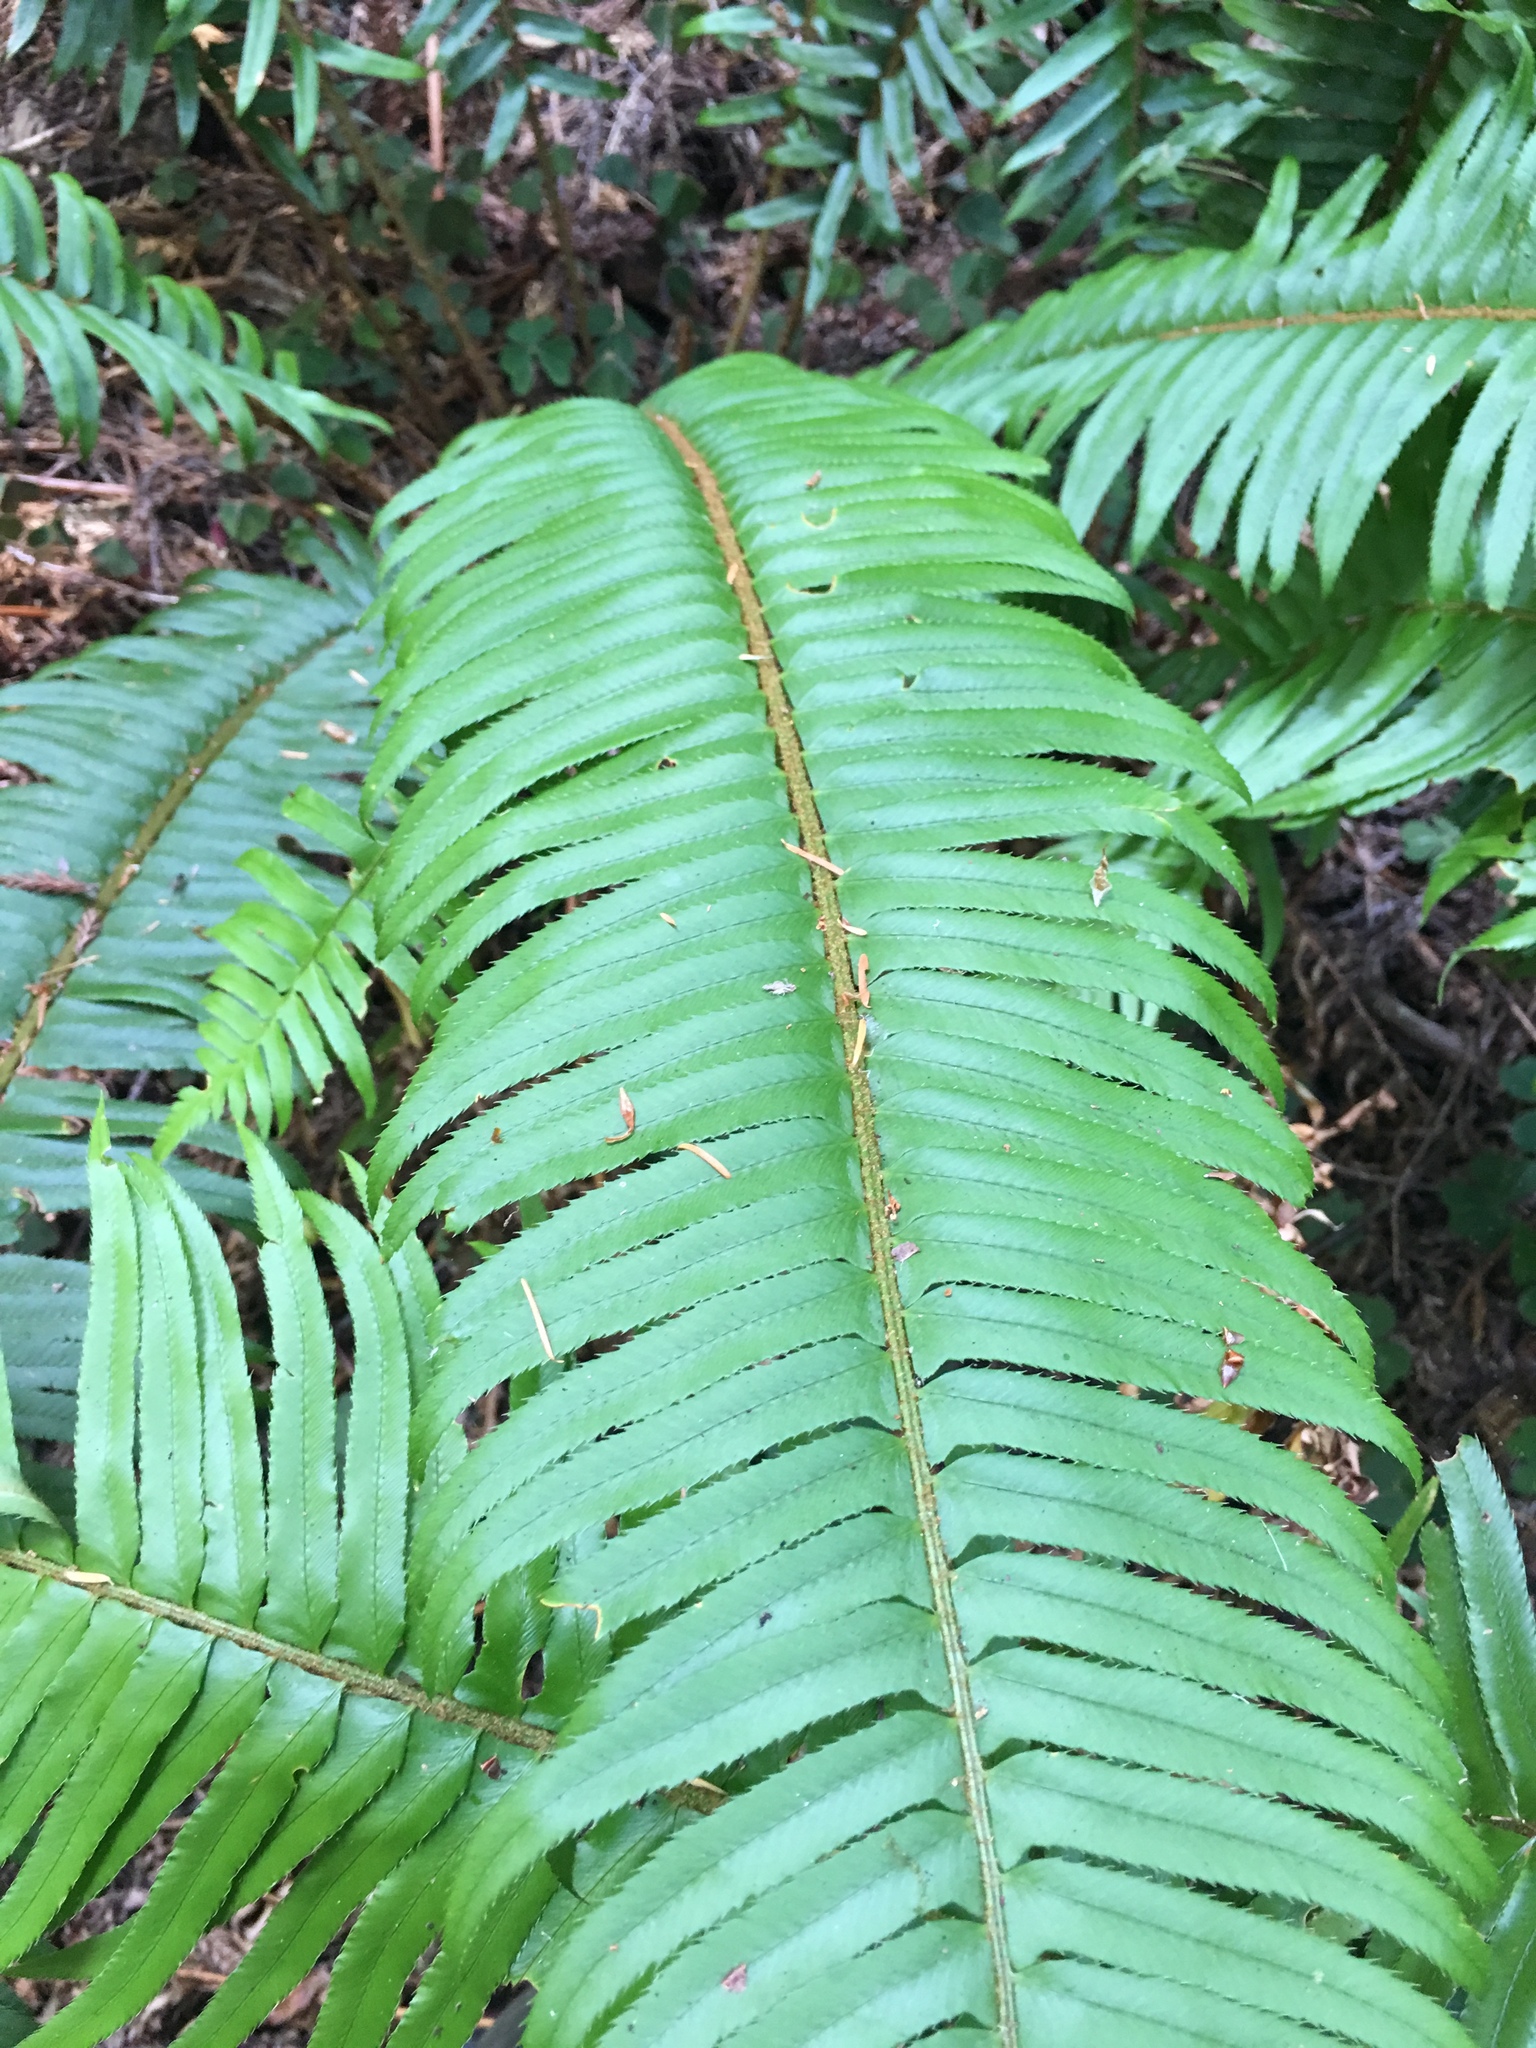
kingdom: Plantae
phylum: Tracheophyta
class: Polypodiopsida
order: Polypodiales
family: Dryopteridaceae
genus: Polystichum
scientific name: Polystichum munitum
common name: Western sword-fern
